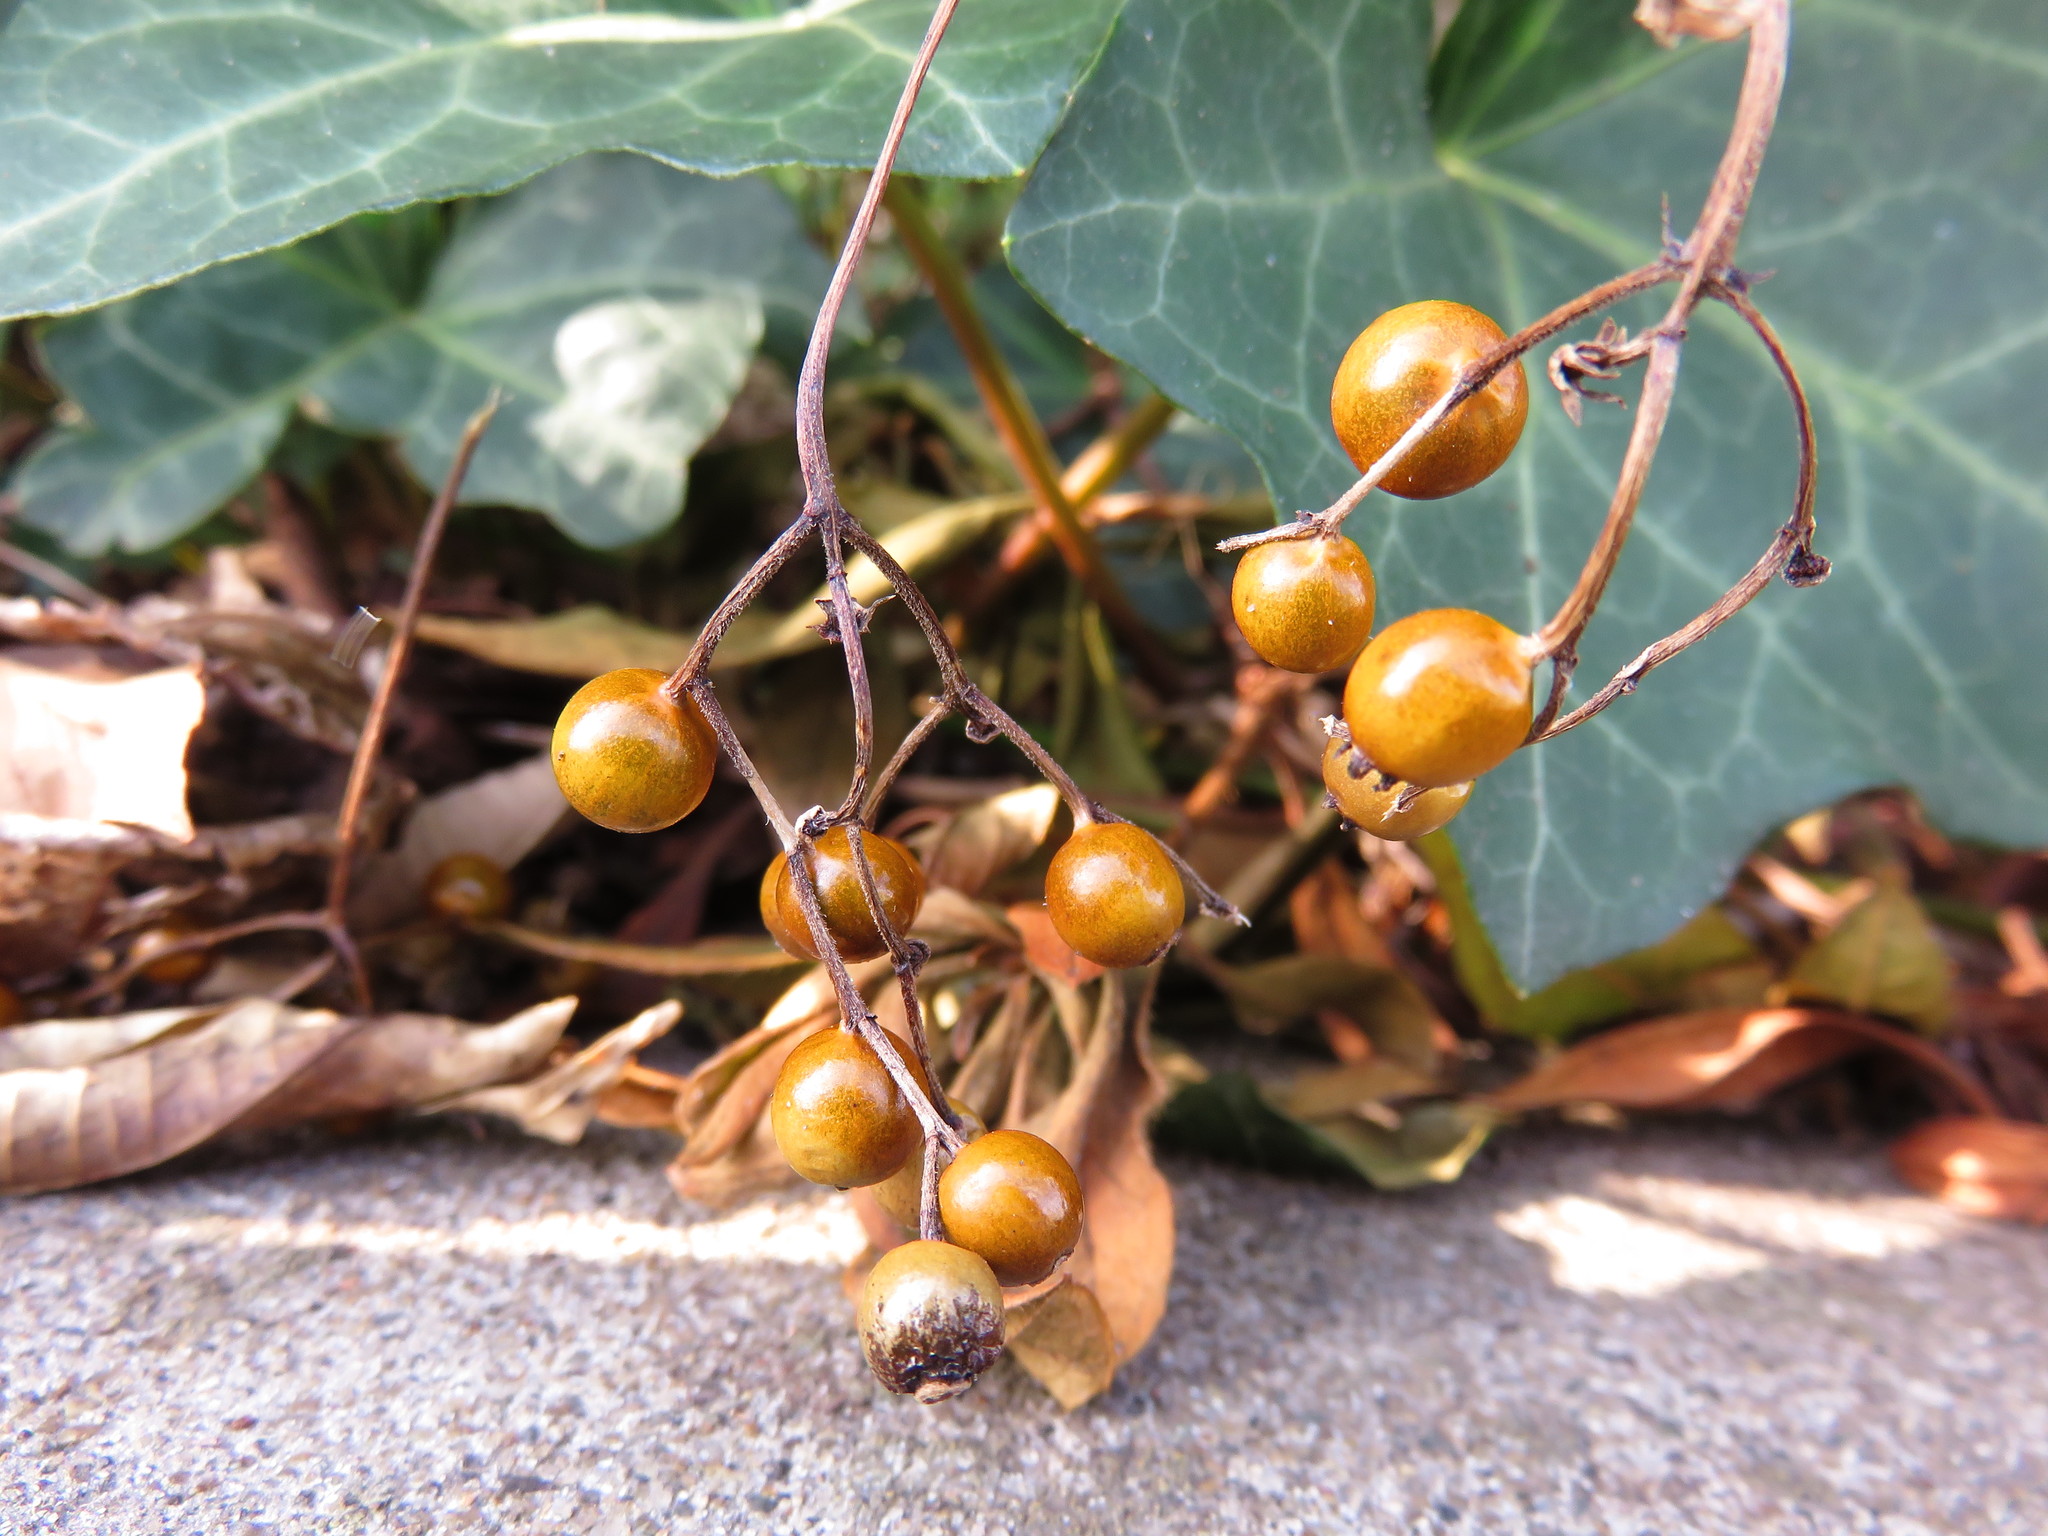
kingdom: Plantae
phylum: Tracheophyta
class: Magnoliopsida
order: Gentianales
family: Rubiaceae
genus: Paederia
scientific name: Paederia foetida
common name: Stinkvine
